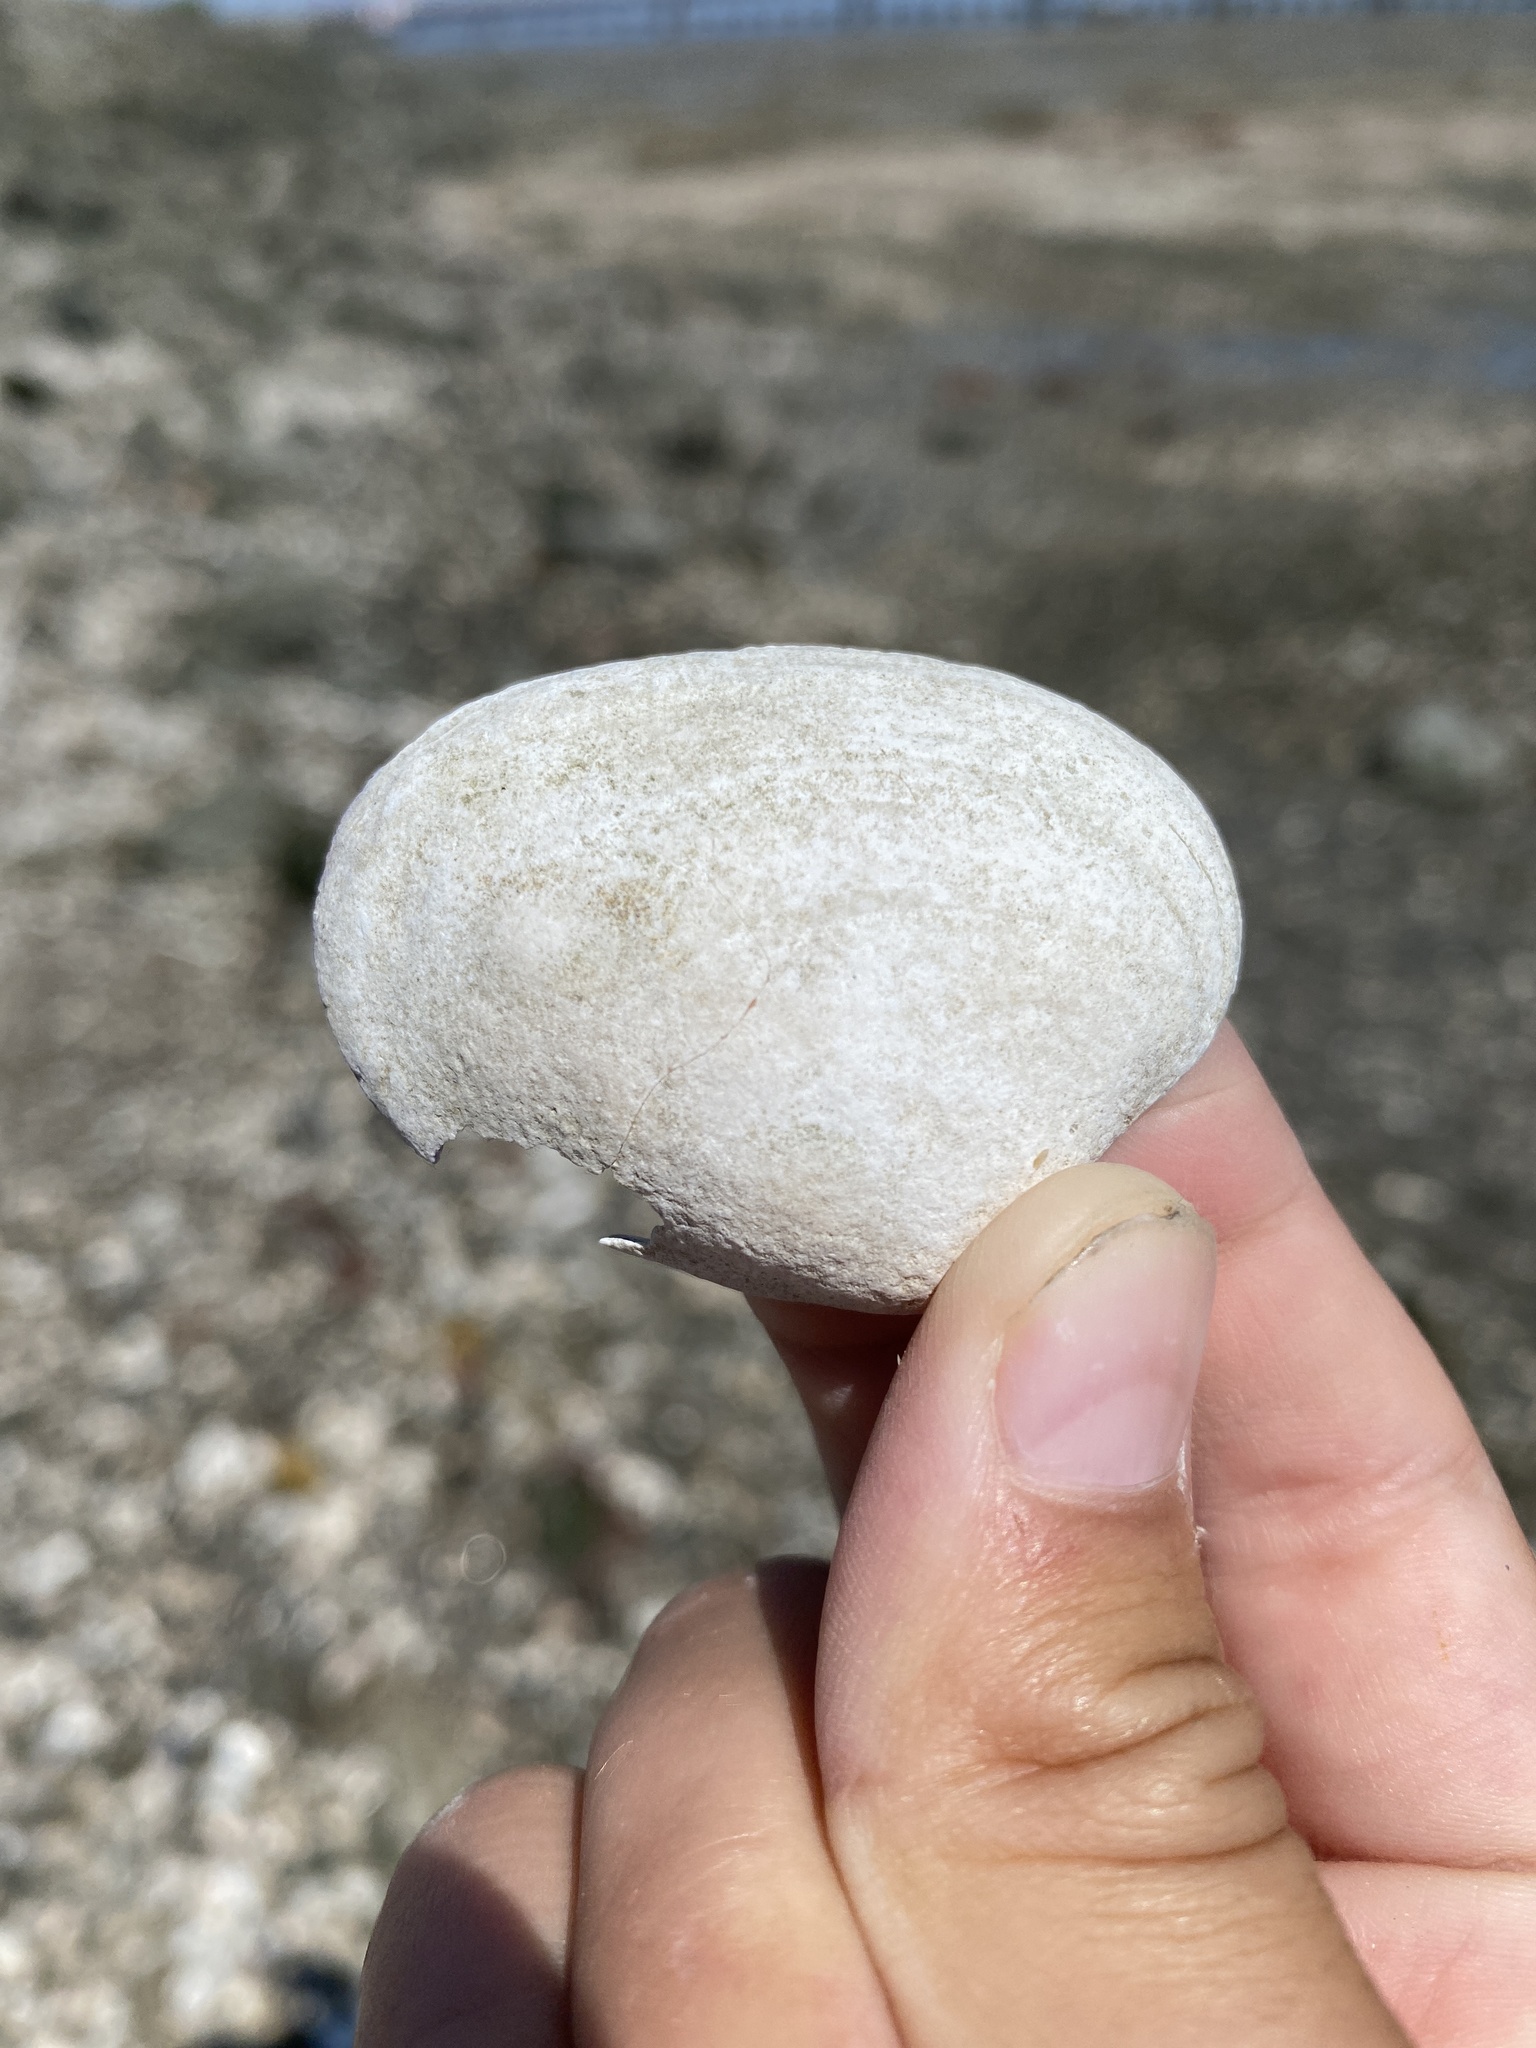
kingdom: Animalia
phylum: Mollusca
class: Bivalvia
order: Venerida
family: Veneridae
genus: Ruditapes
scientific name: Ruditapes philippinarum
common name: Manila clam
